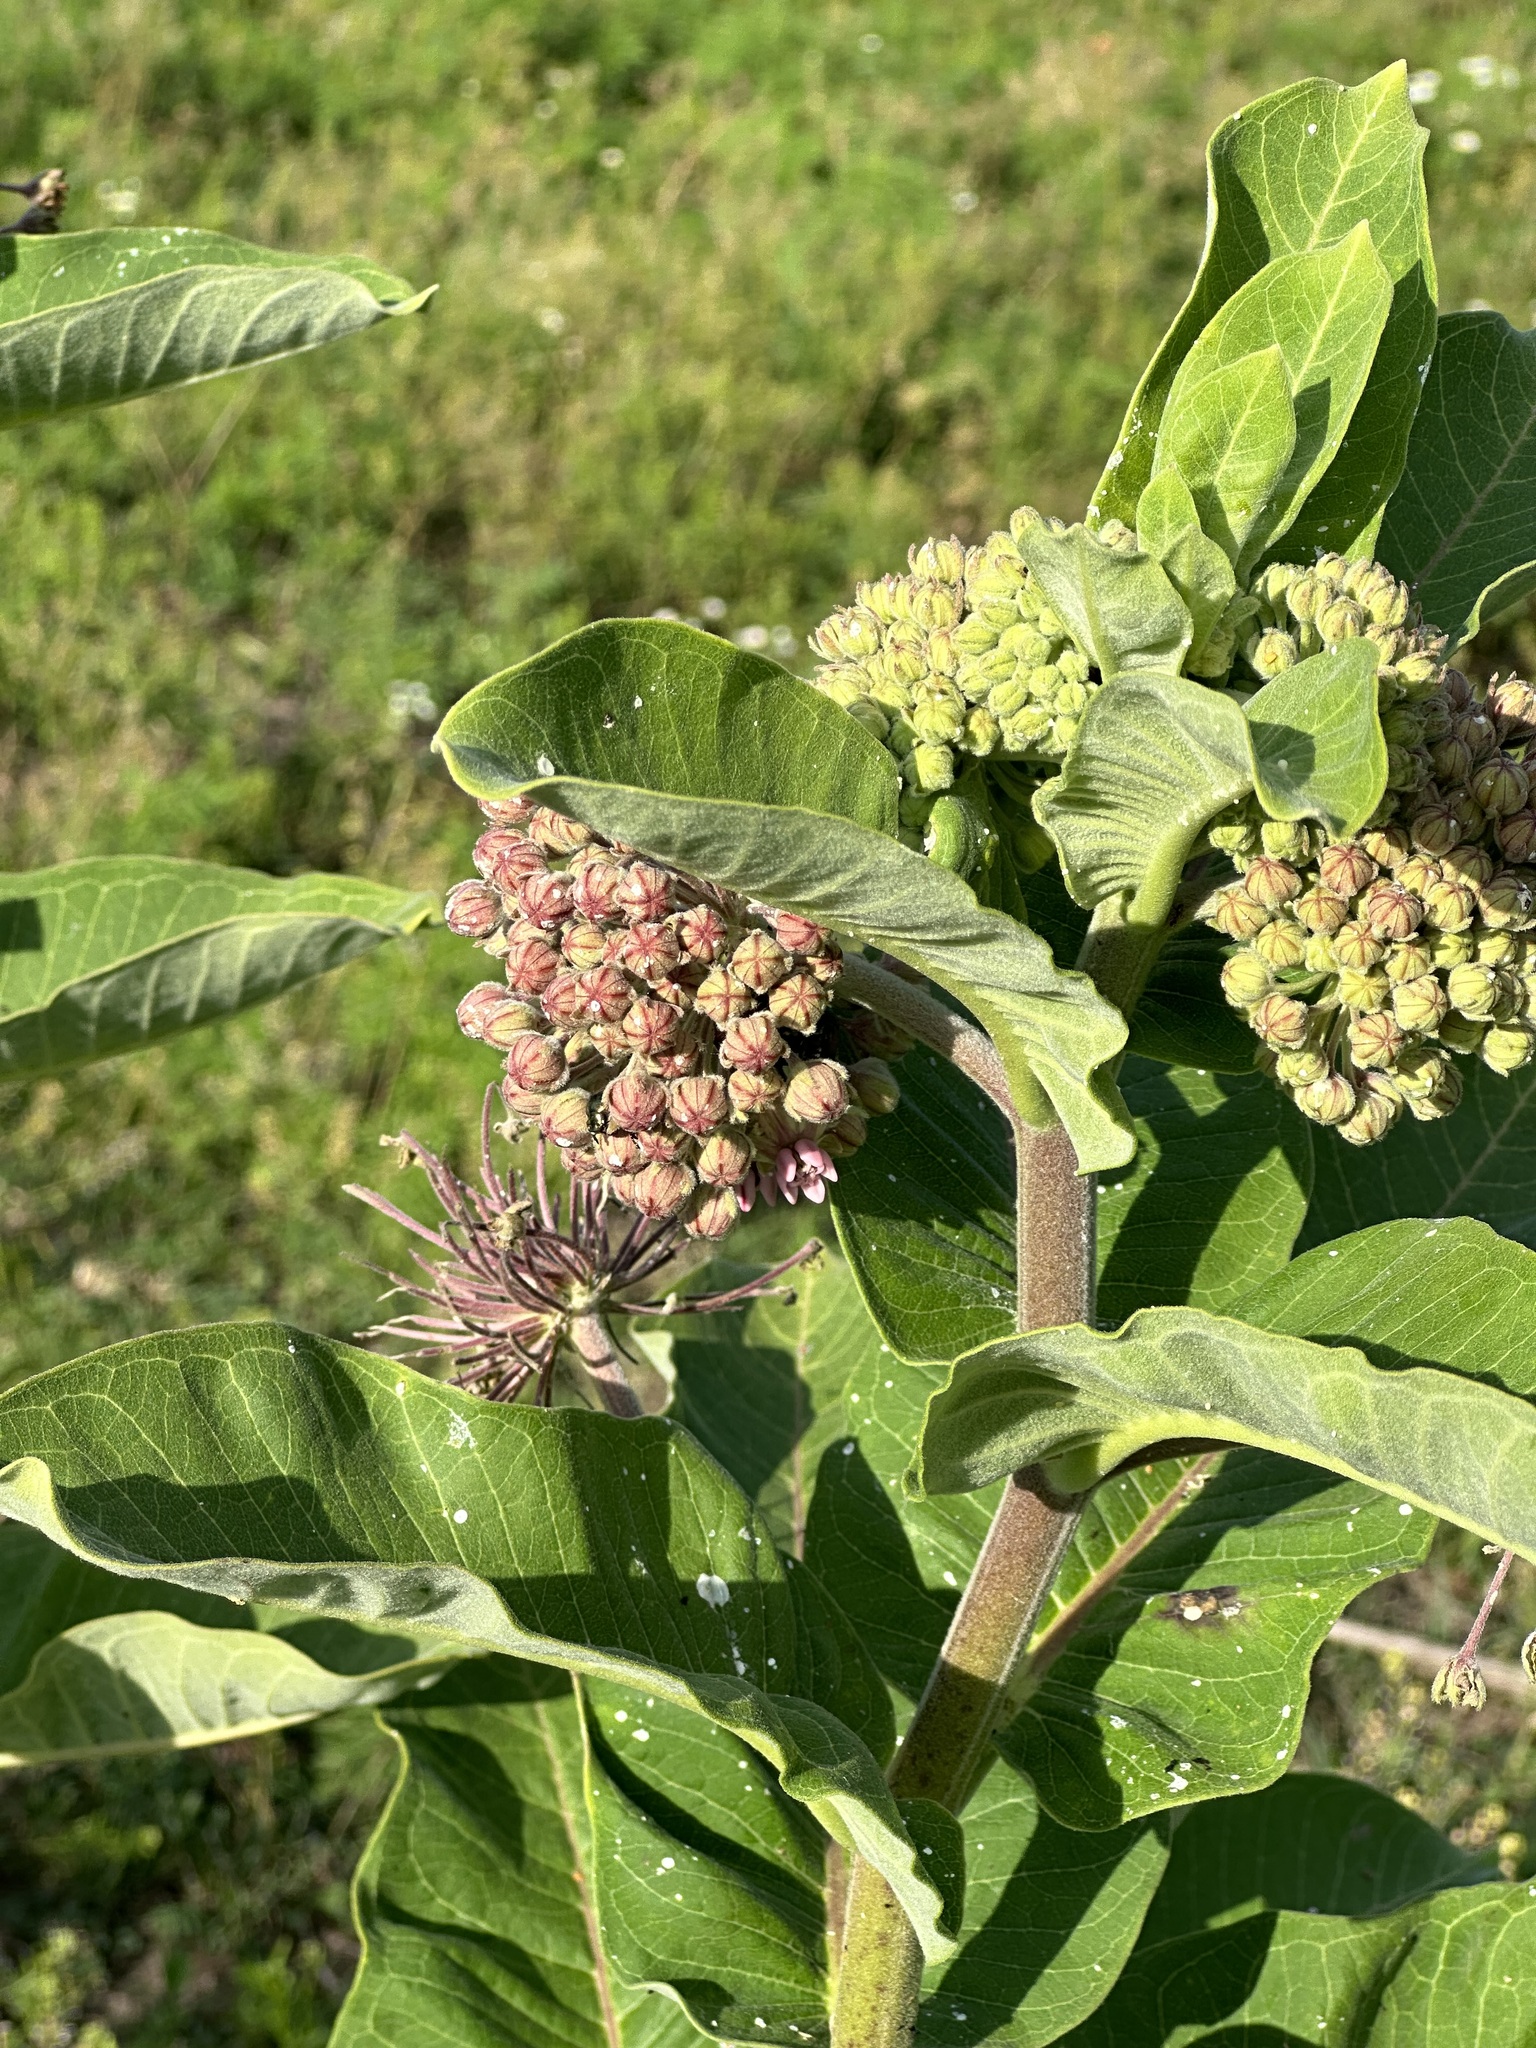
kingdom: Plantae
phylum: Tracheophyta
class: Magnoliopsida
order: Gentianales
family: Apocynaceae
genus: Asclepias
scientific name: Asclepias syriaca
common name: Common milkweed
